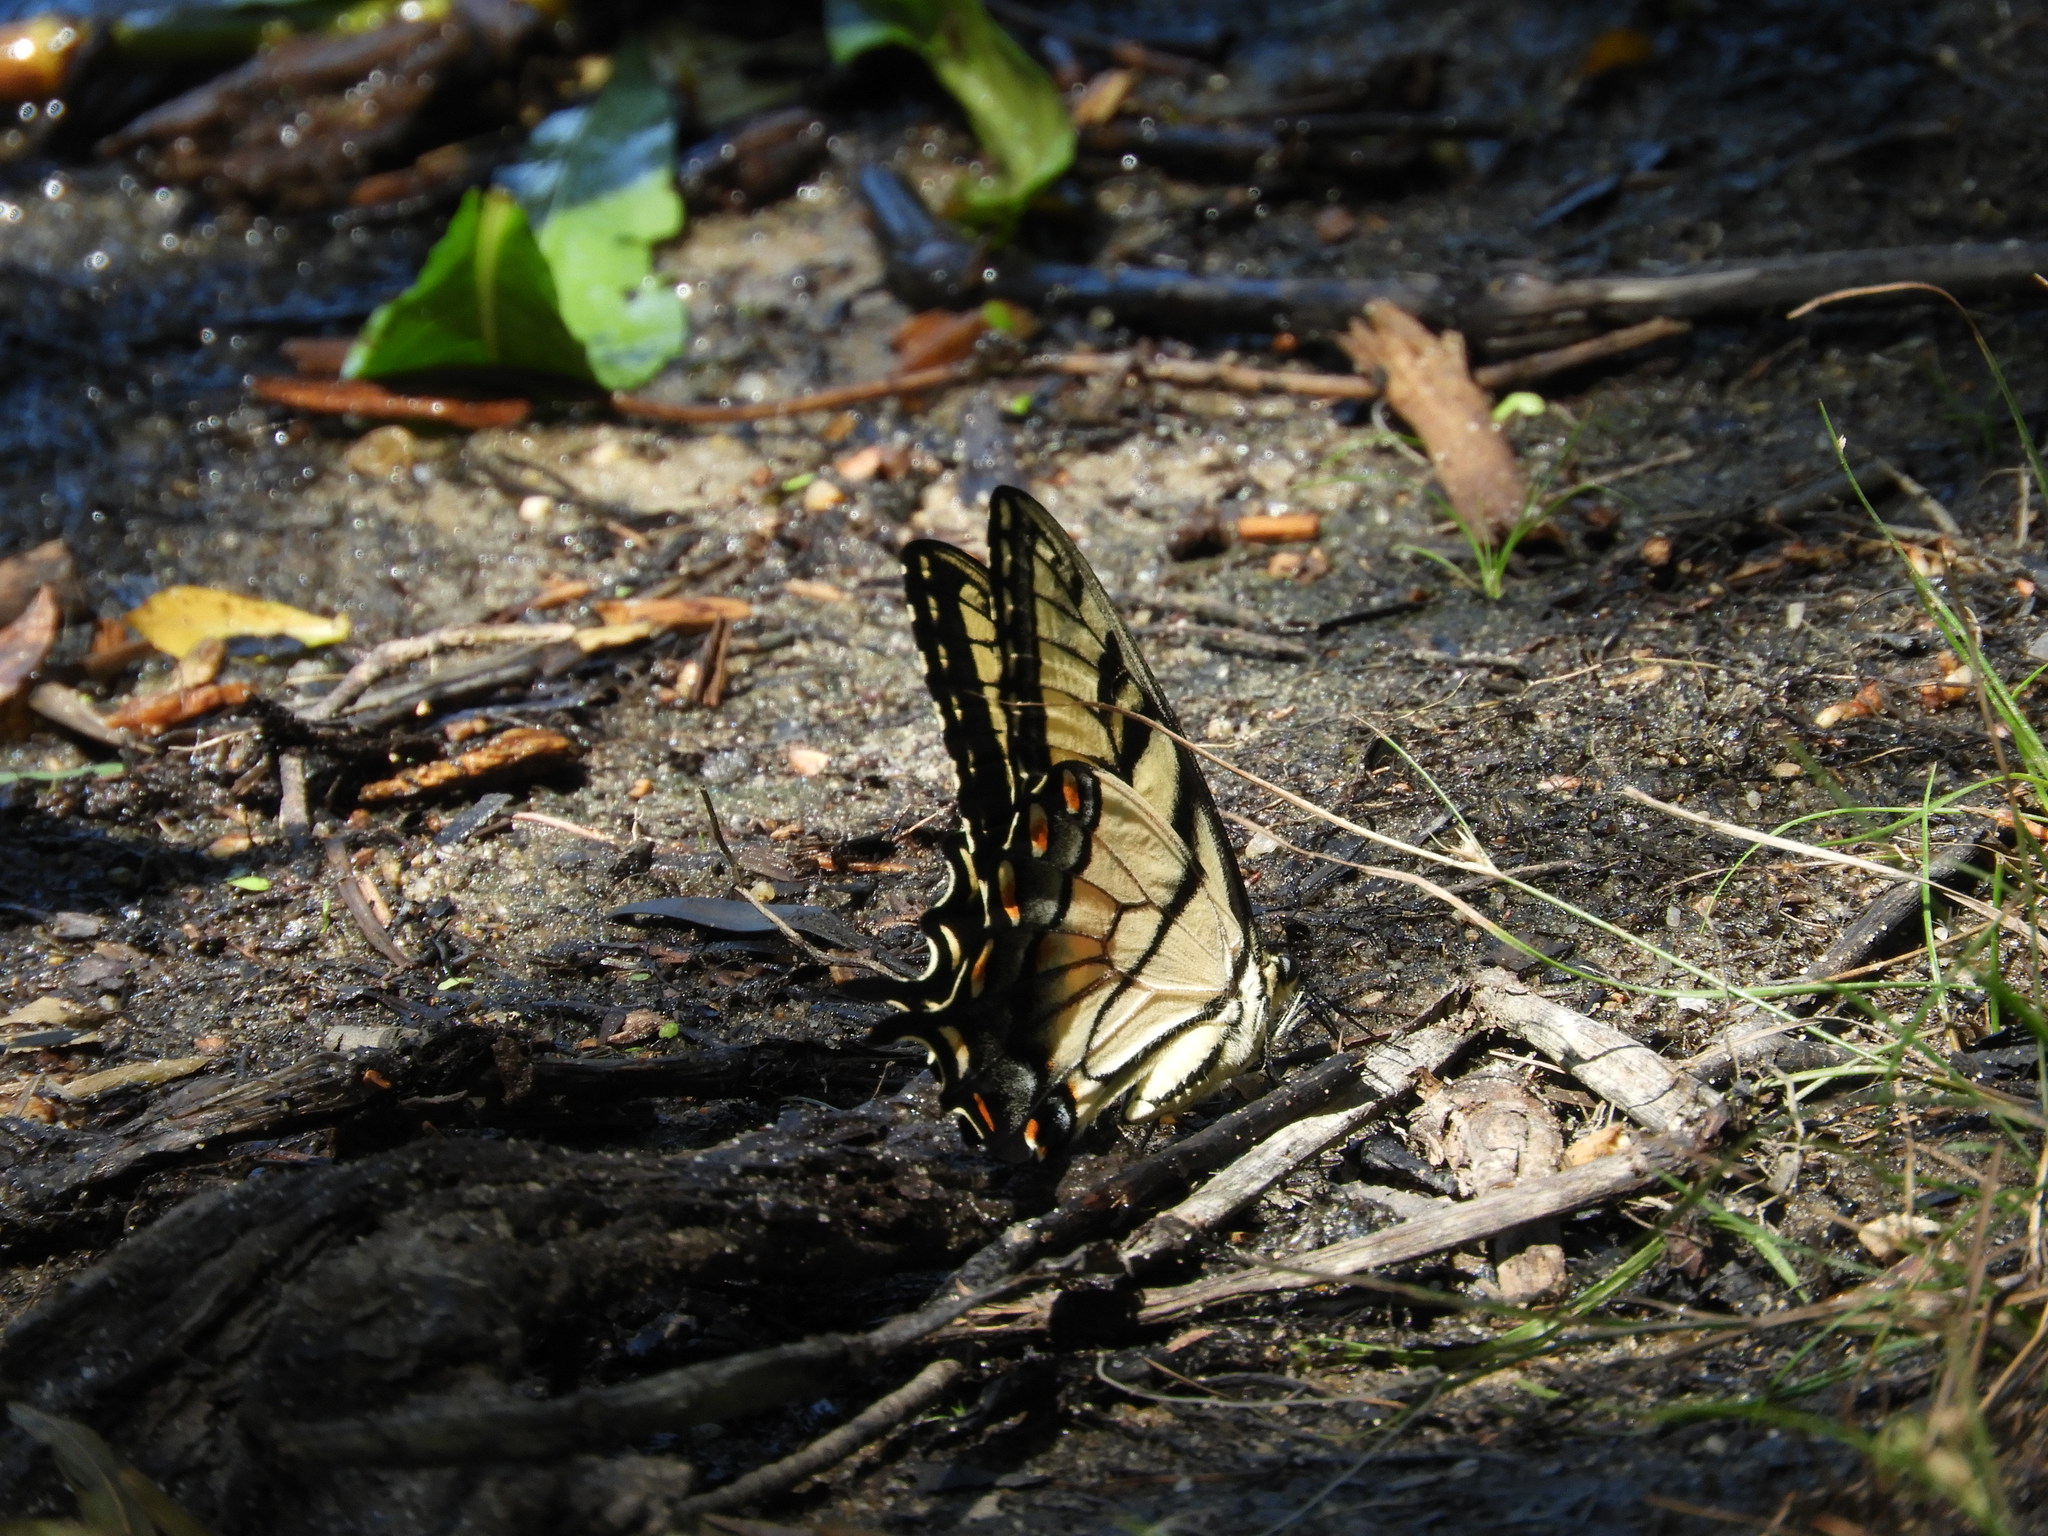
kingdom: Animalia
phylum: Arthropoda
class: Insecta
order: Lepidoptera
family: Papilionidae
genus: Papilio
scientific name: Papilio glaucus
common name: Tiger swallowtail
